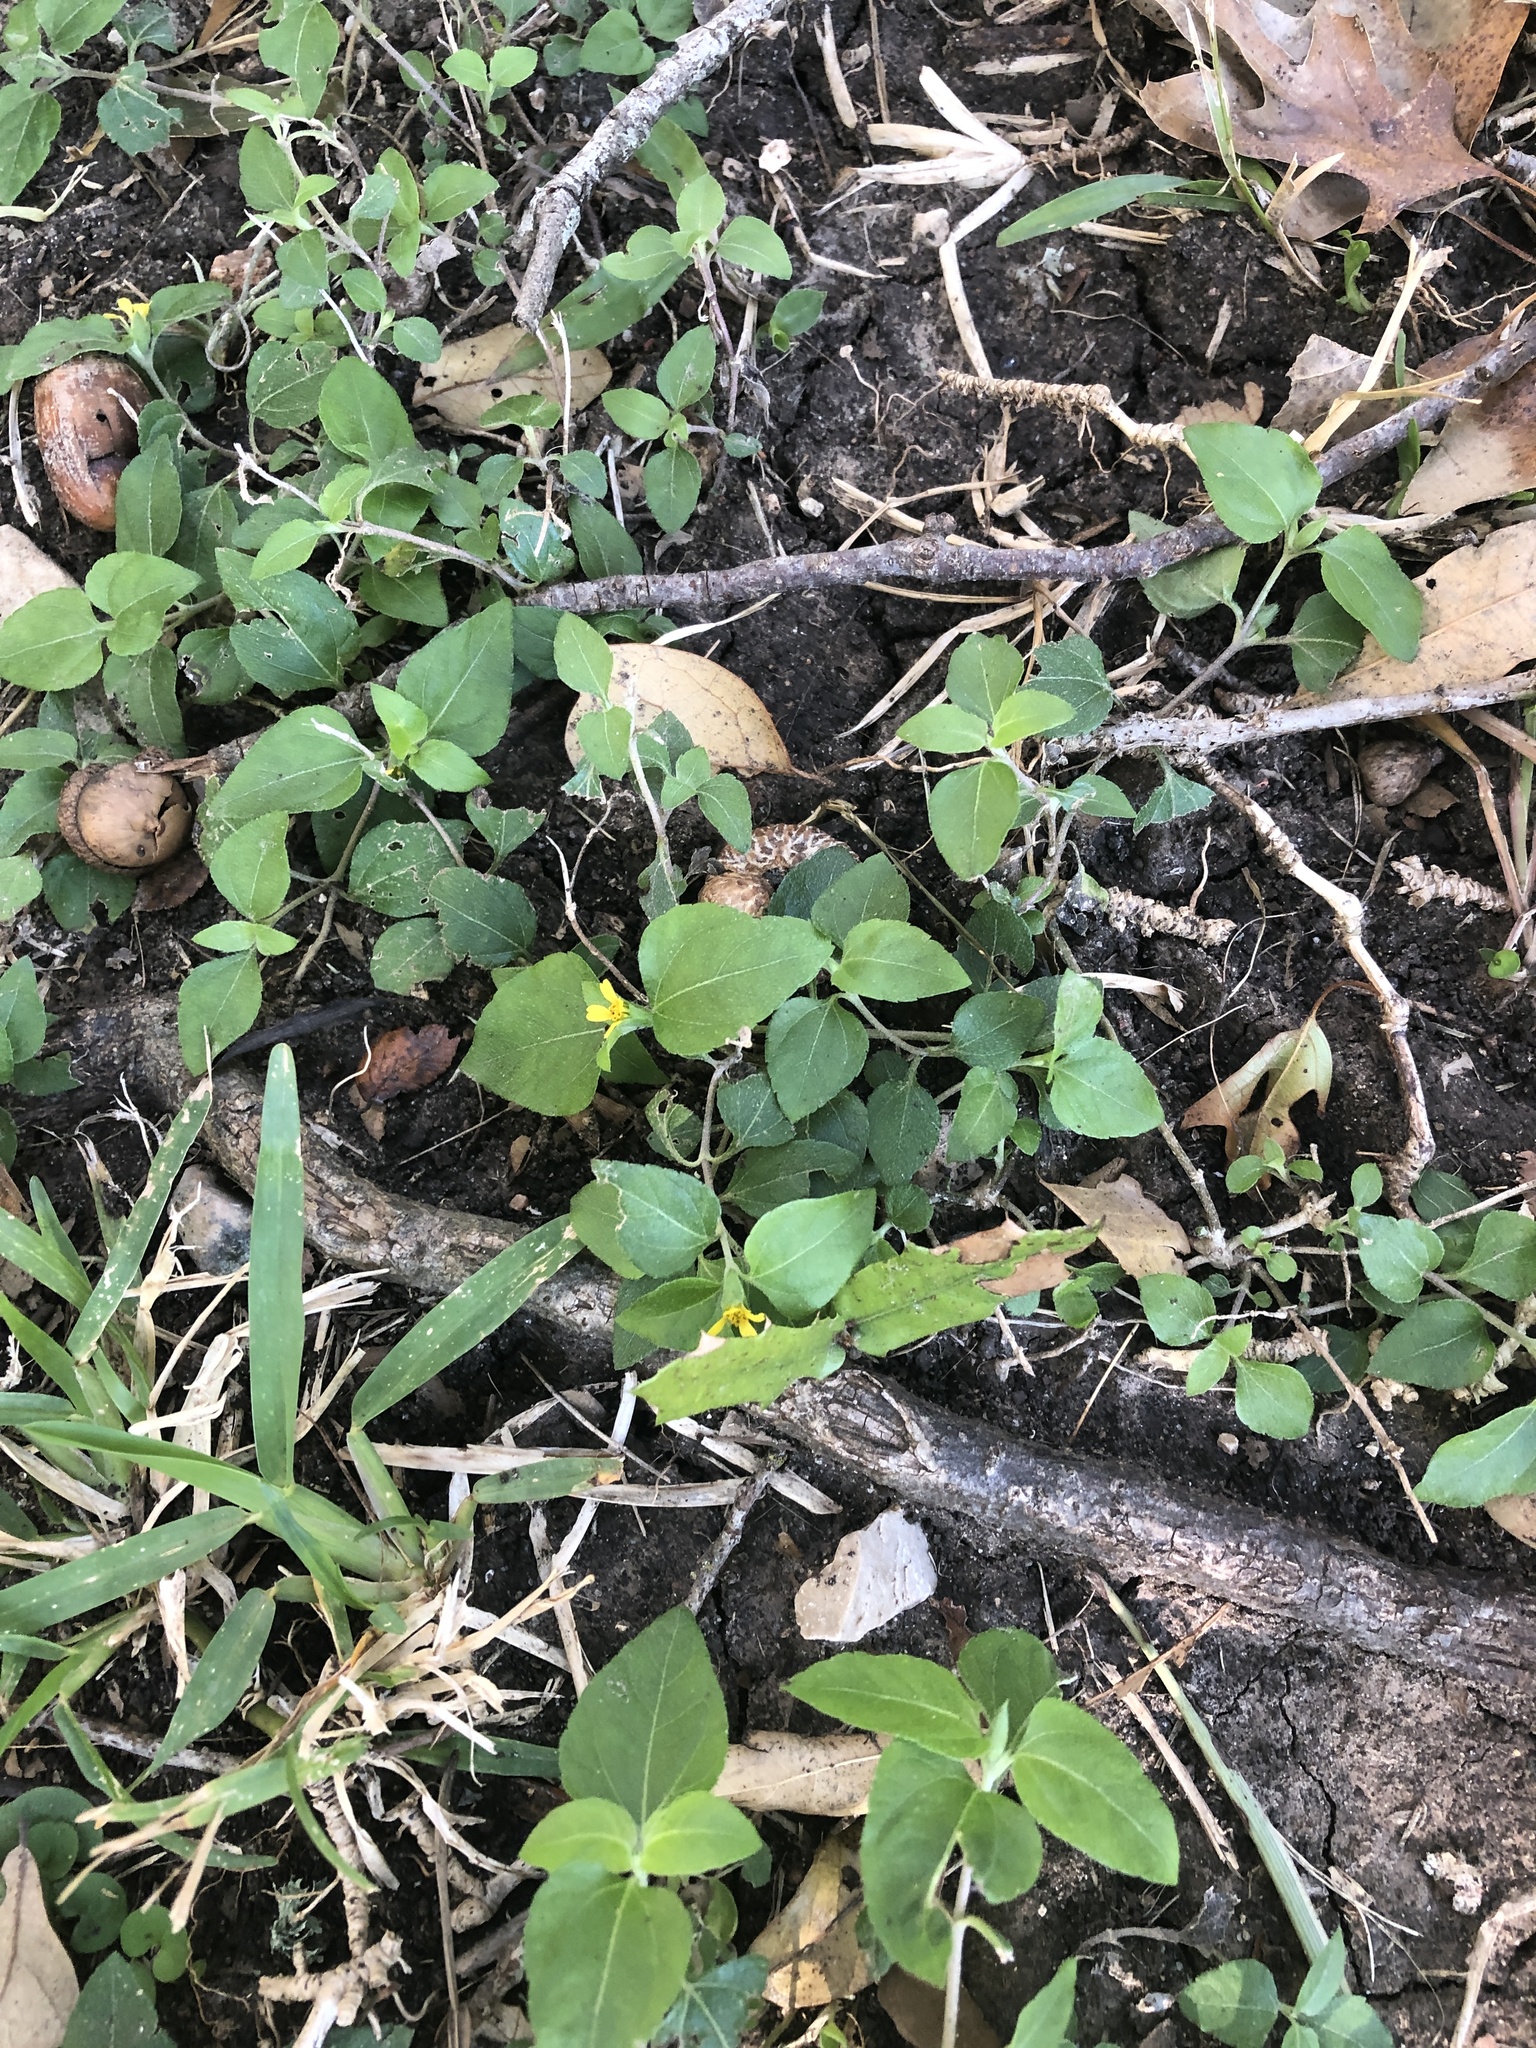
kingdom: Plantae
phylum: Tracheophyta
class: Magnoliopsida
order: Asterales
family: Asteraceae
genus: Calyptocarpus
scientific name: Calyptocarpus vialis
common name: Straggler daisy
